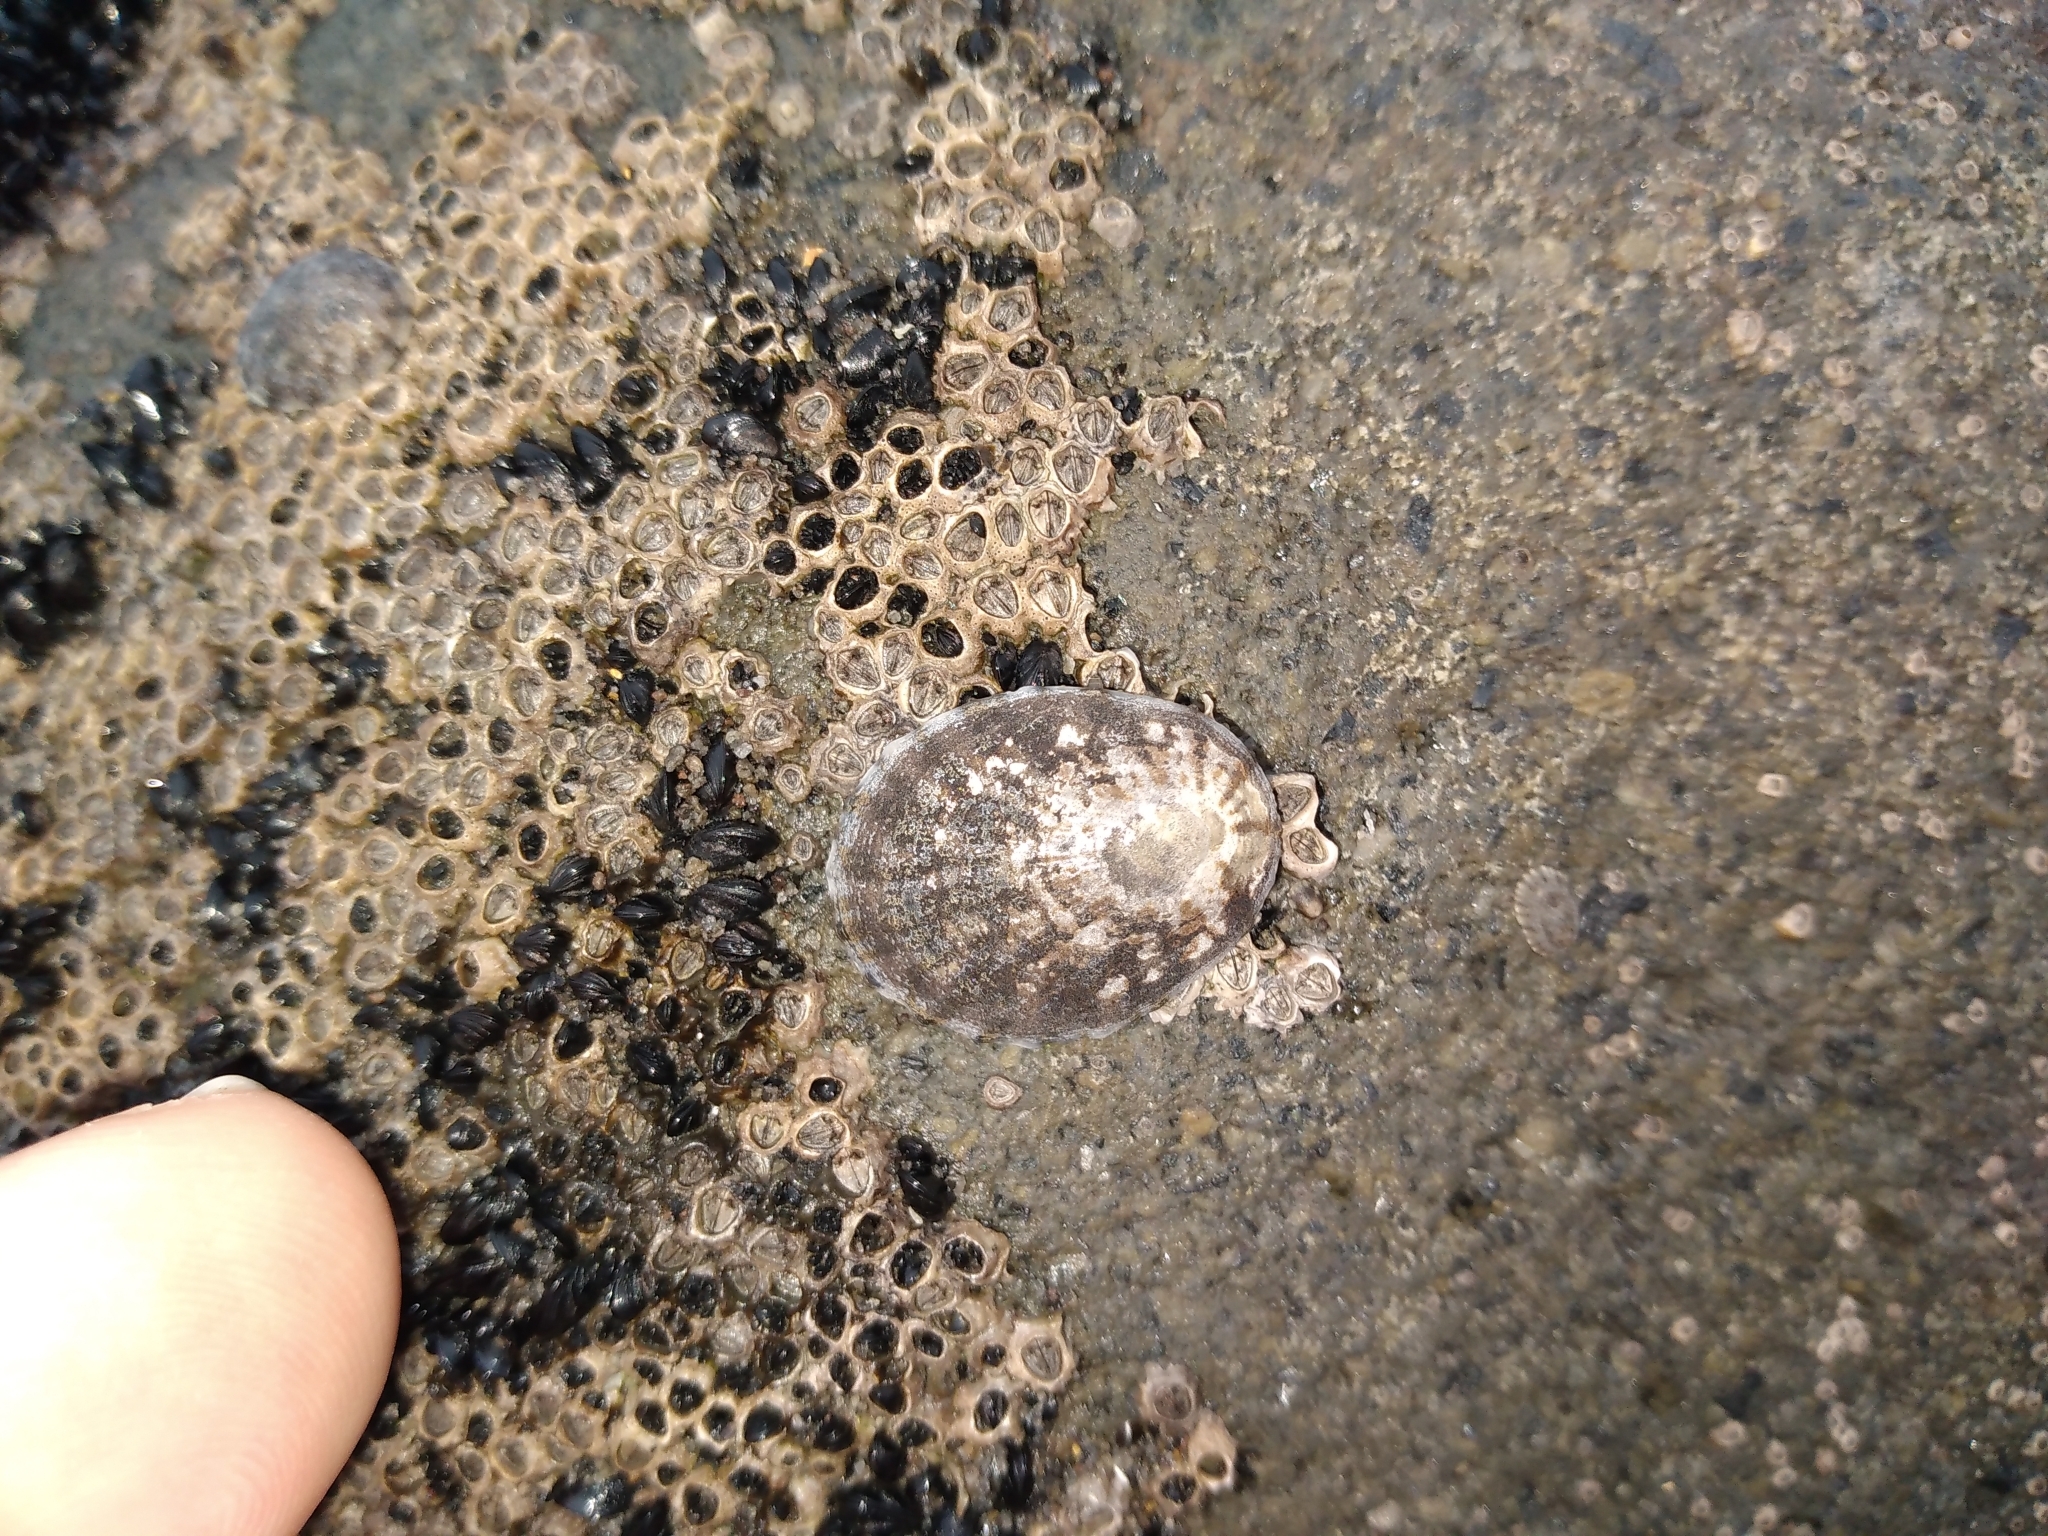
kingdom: Animalia
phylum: Mollusca
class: Gastropoda
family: Nacellidae
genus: Cellana
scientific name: Cellana radians
